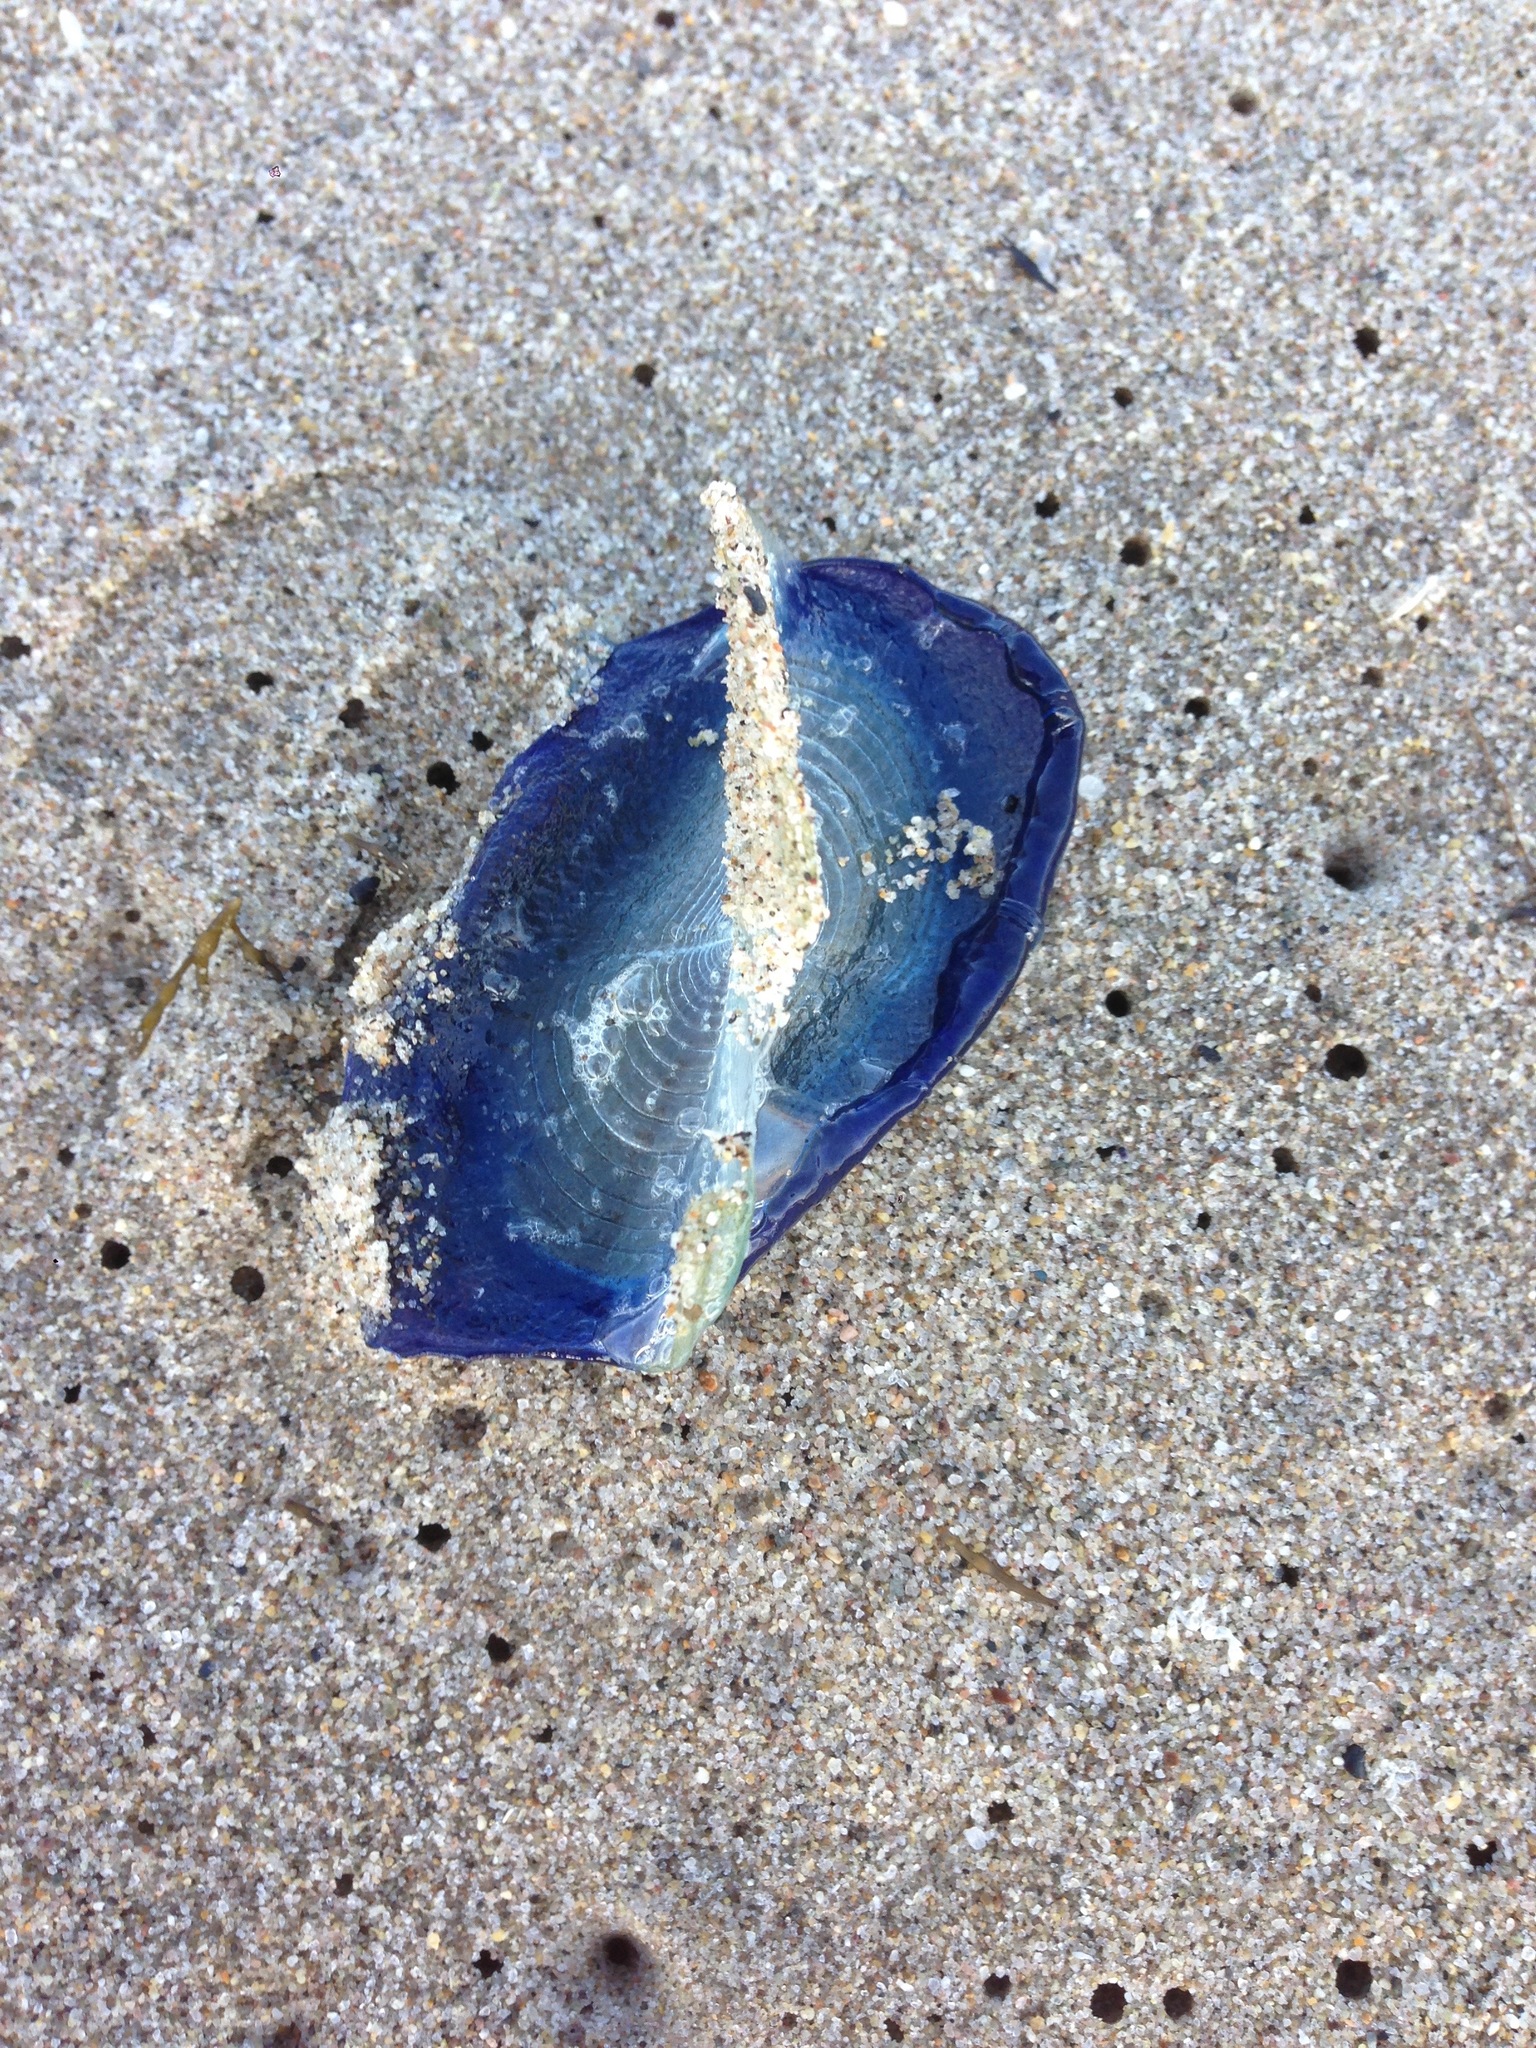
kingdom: Animalia
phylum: Cnidaria
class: Hydrozoa
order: Anthoathecata
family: Porpitidae
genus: Velella
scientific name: Velella velella
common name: By-the-wind-sailor
